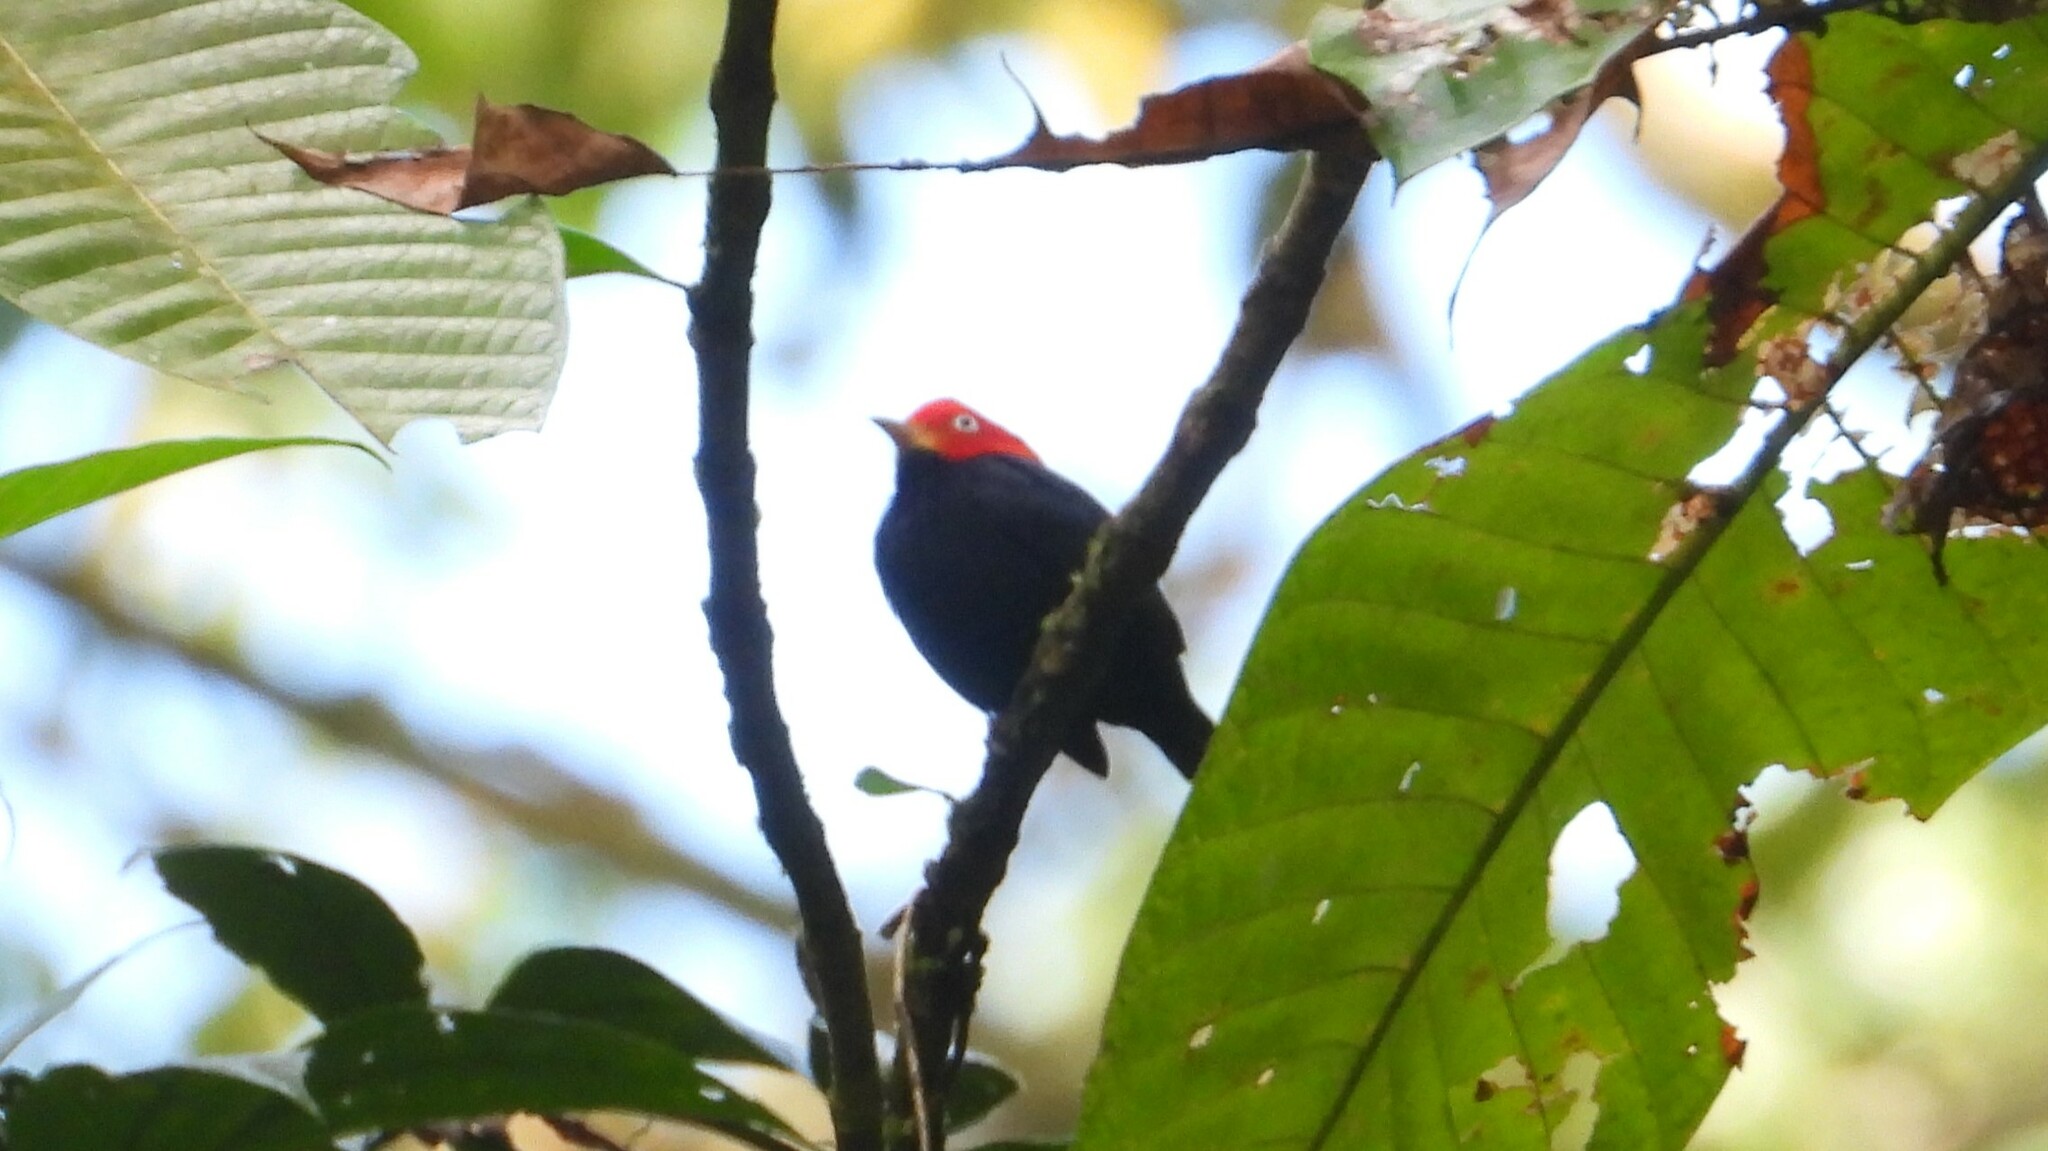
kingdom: Animalia
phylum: Chordata
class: Aves
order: Passeriformes
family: Pipridae
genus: Pipra
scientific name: Pipra mentalis
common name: Red-capped manakin
